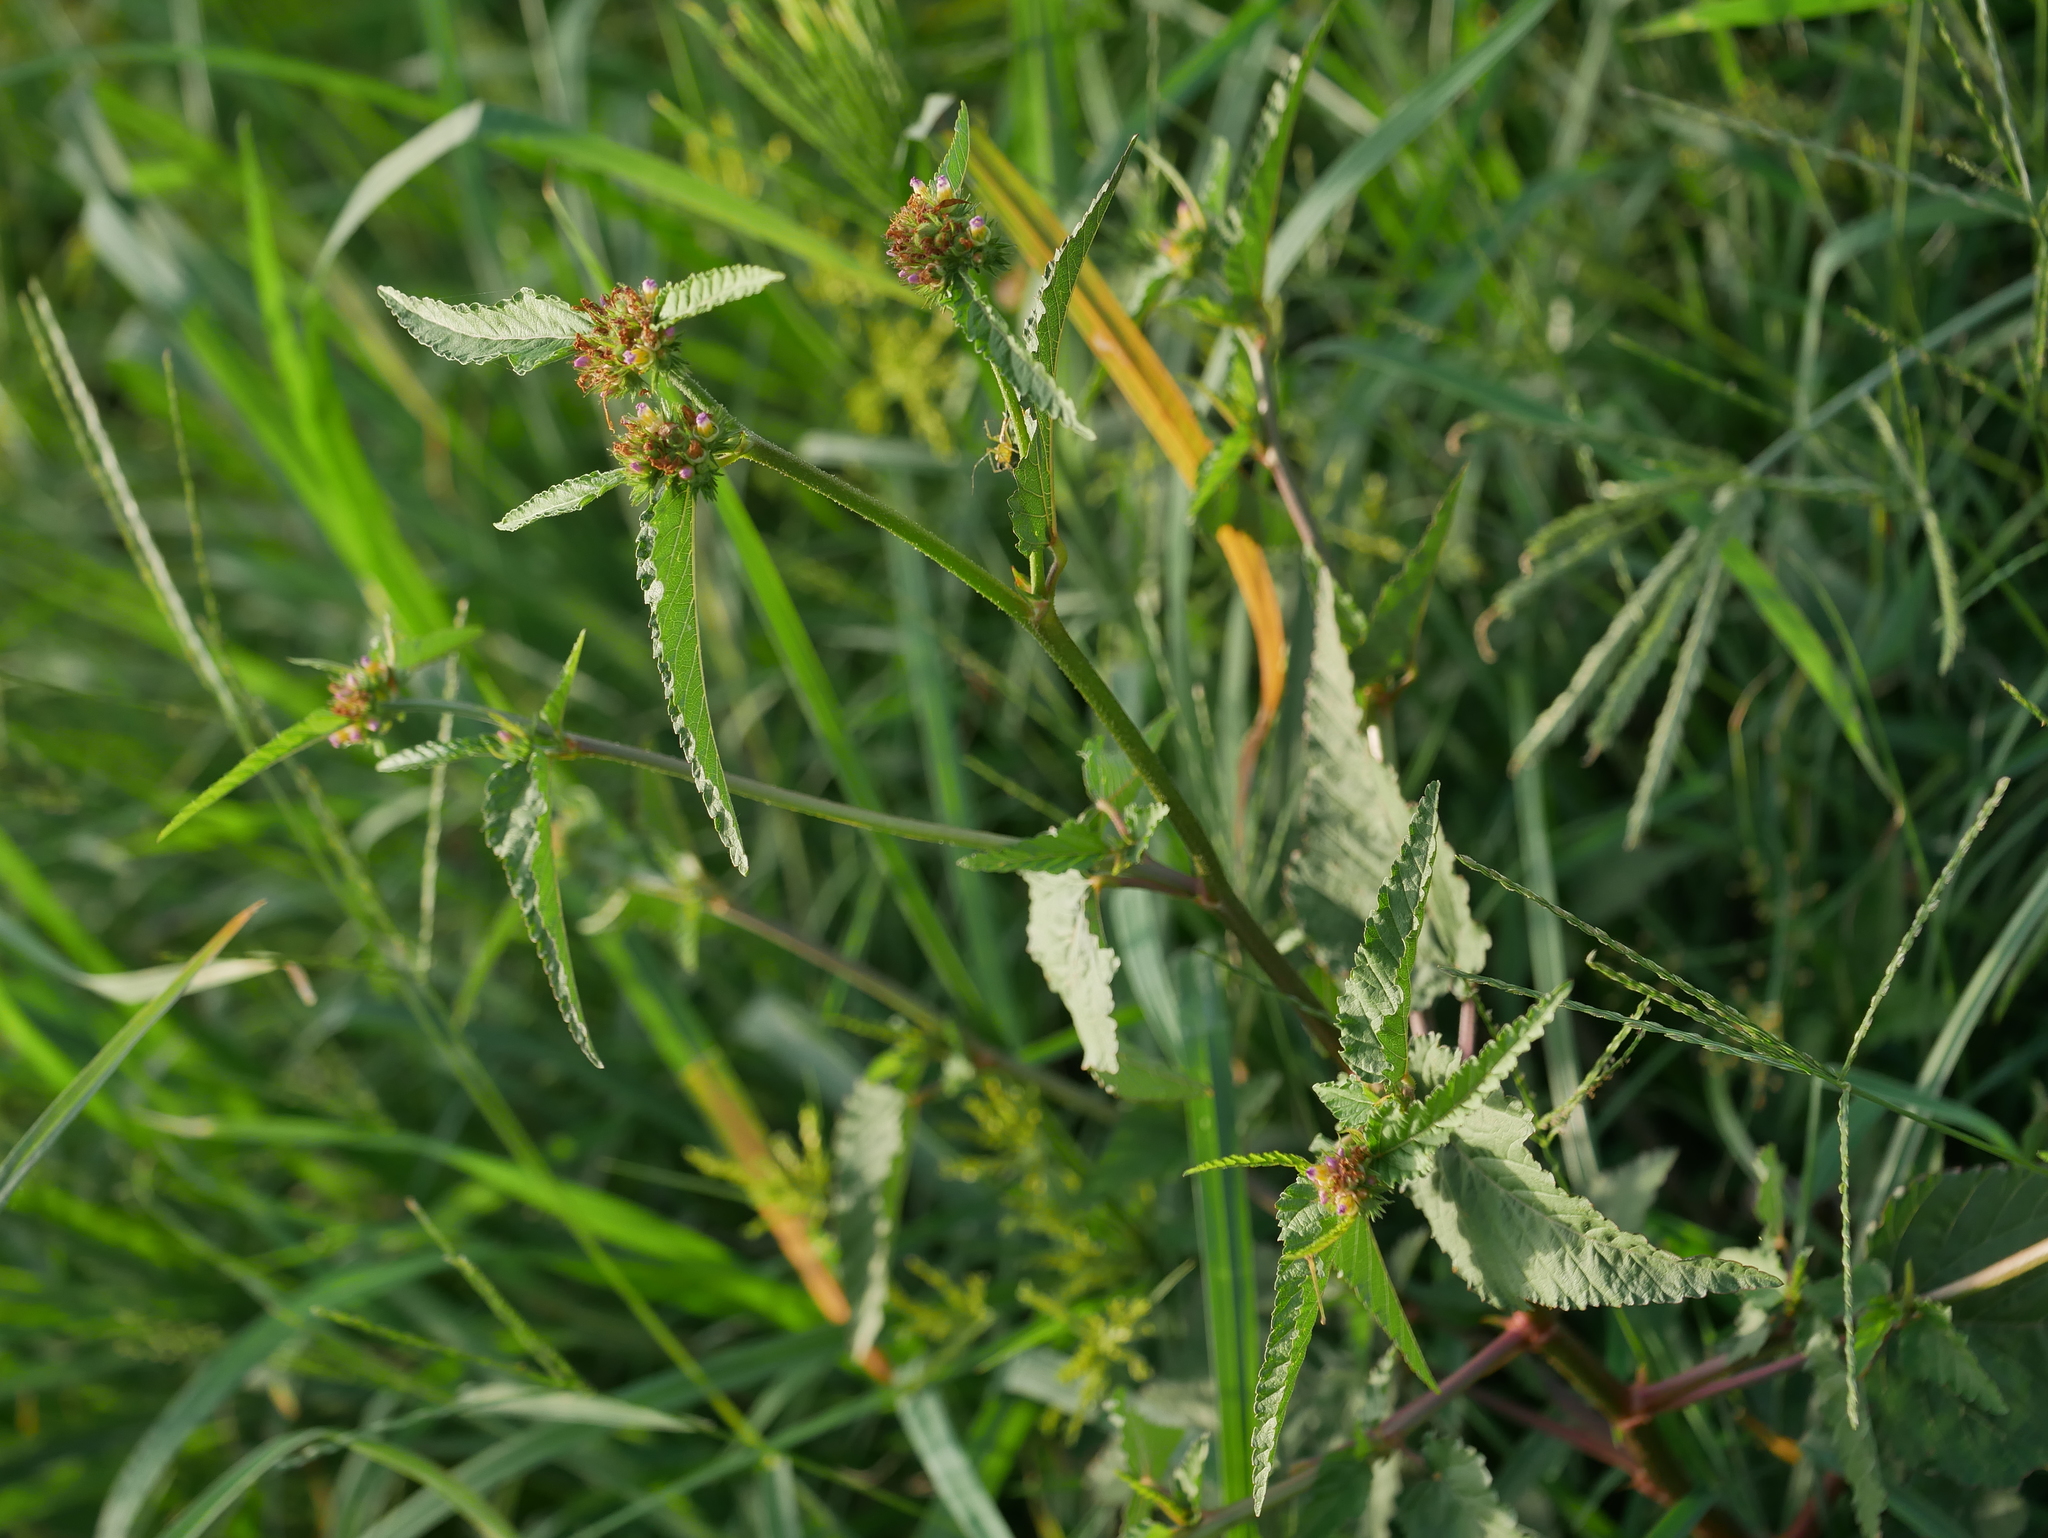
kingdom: Plantae
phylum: Tracheophyta
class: Magnoliopsida
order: Malvales
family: Malvaceae
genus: Melochia
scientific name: Melochia corchorifolia
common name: Chocolateweed
